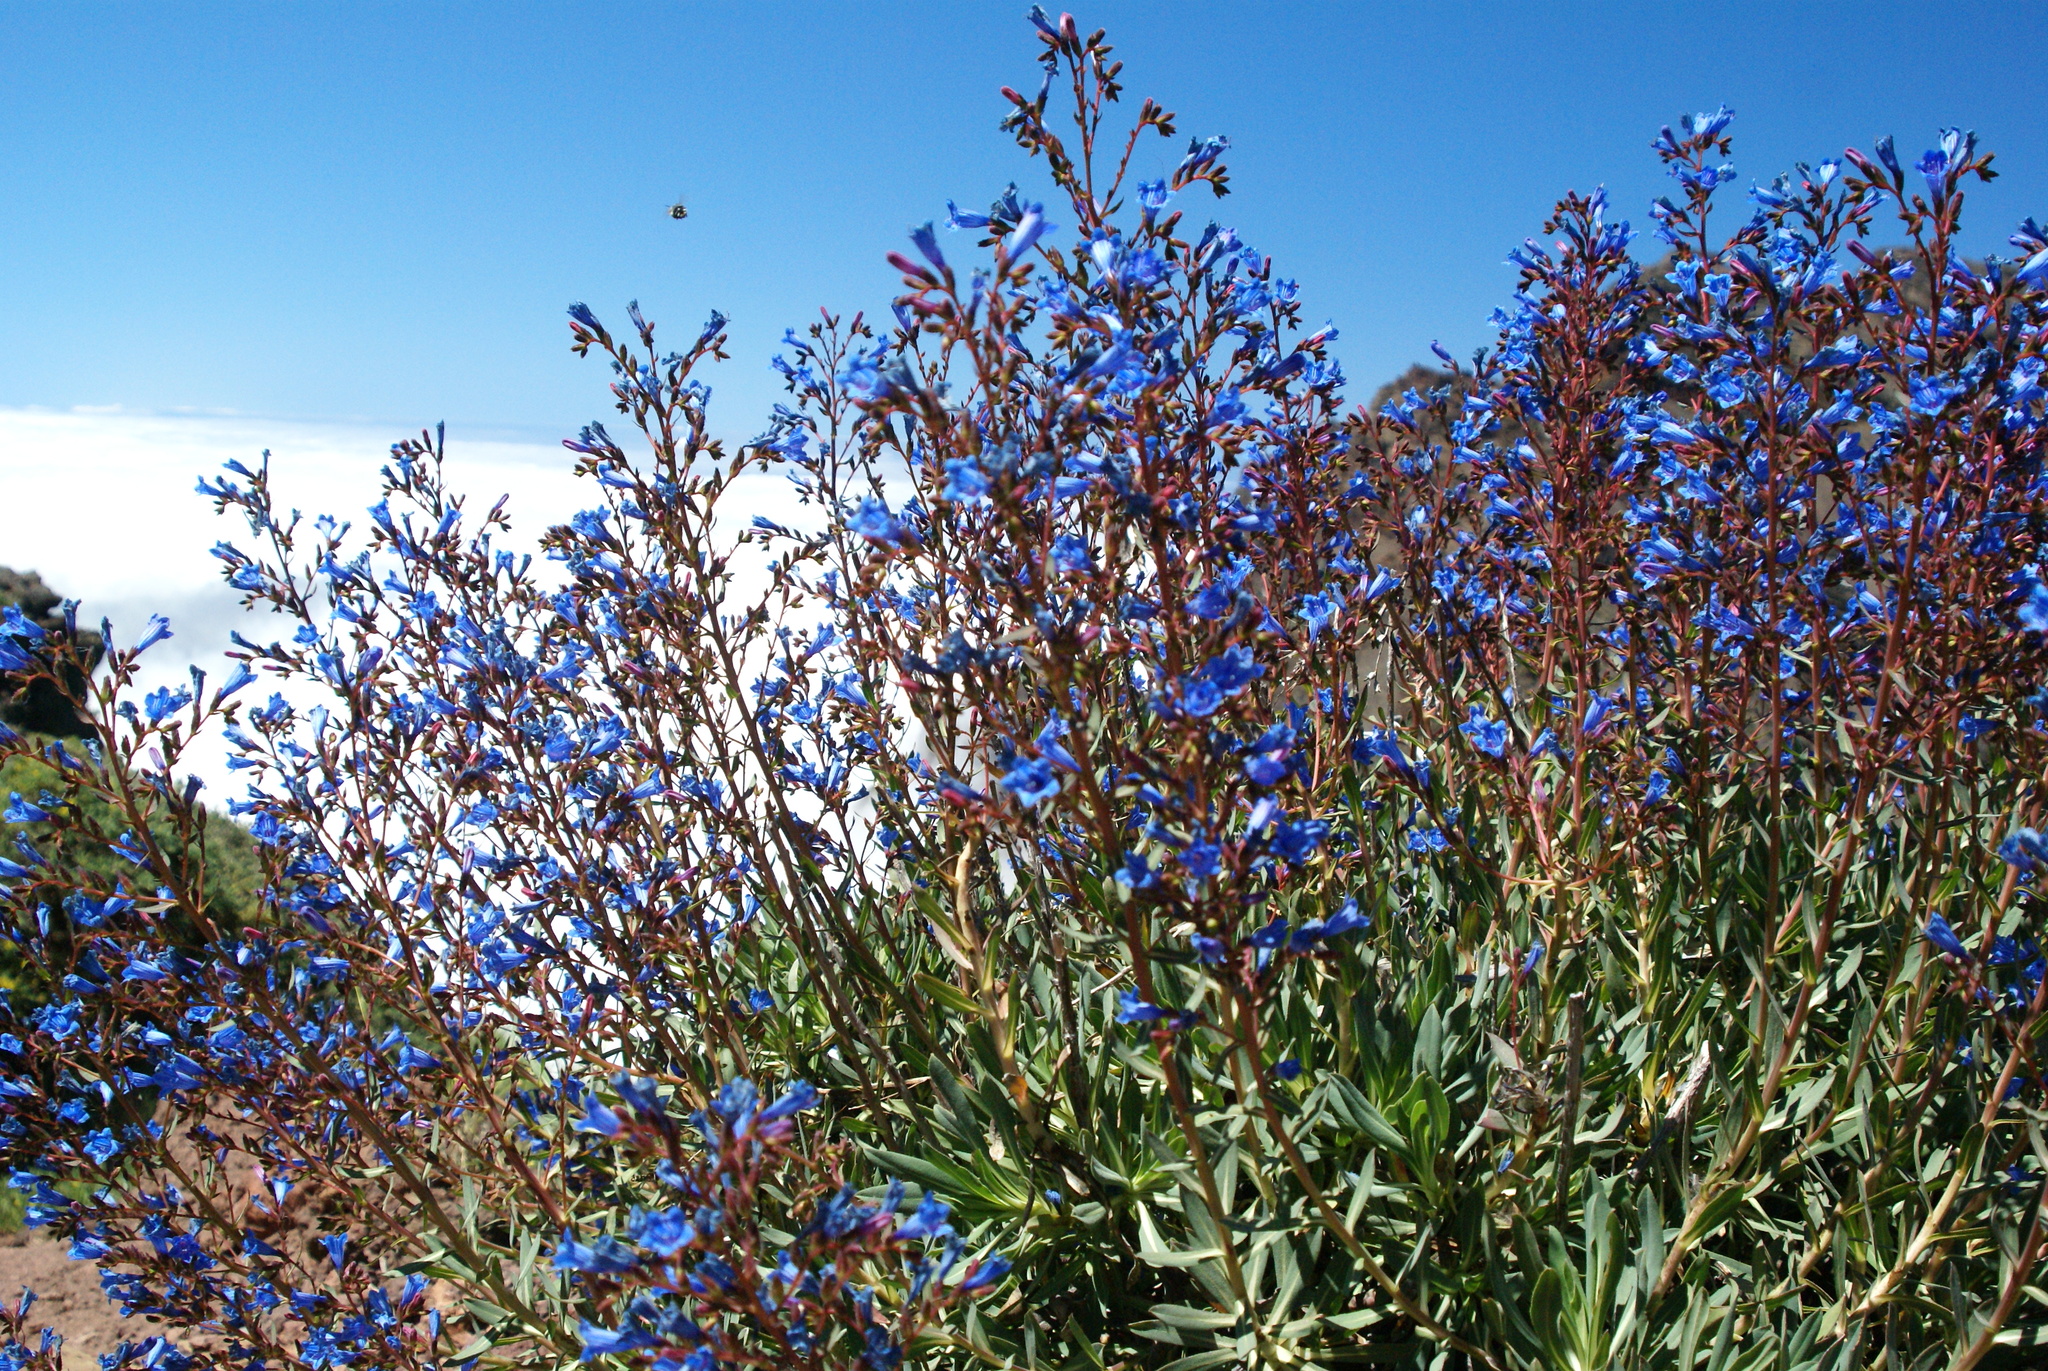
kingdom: Plantae
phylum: Tracheophyta
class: Magnoliopsida
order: Boraginales
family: Boraginaceae
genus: Echium
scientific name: Echium thyrsiflorum
